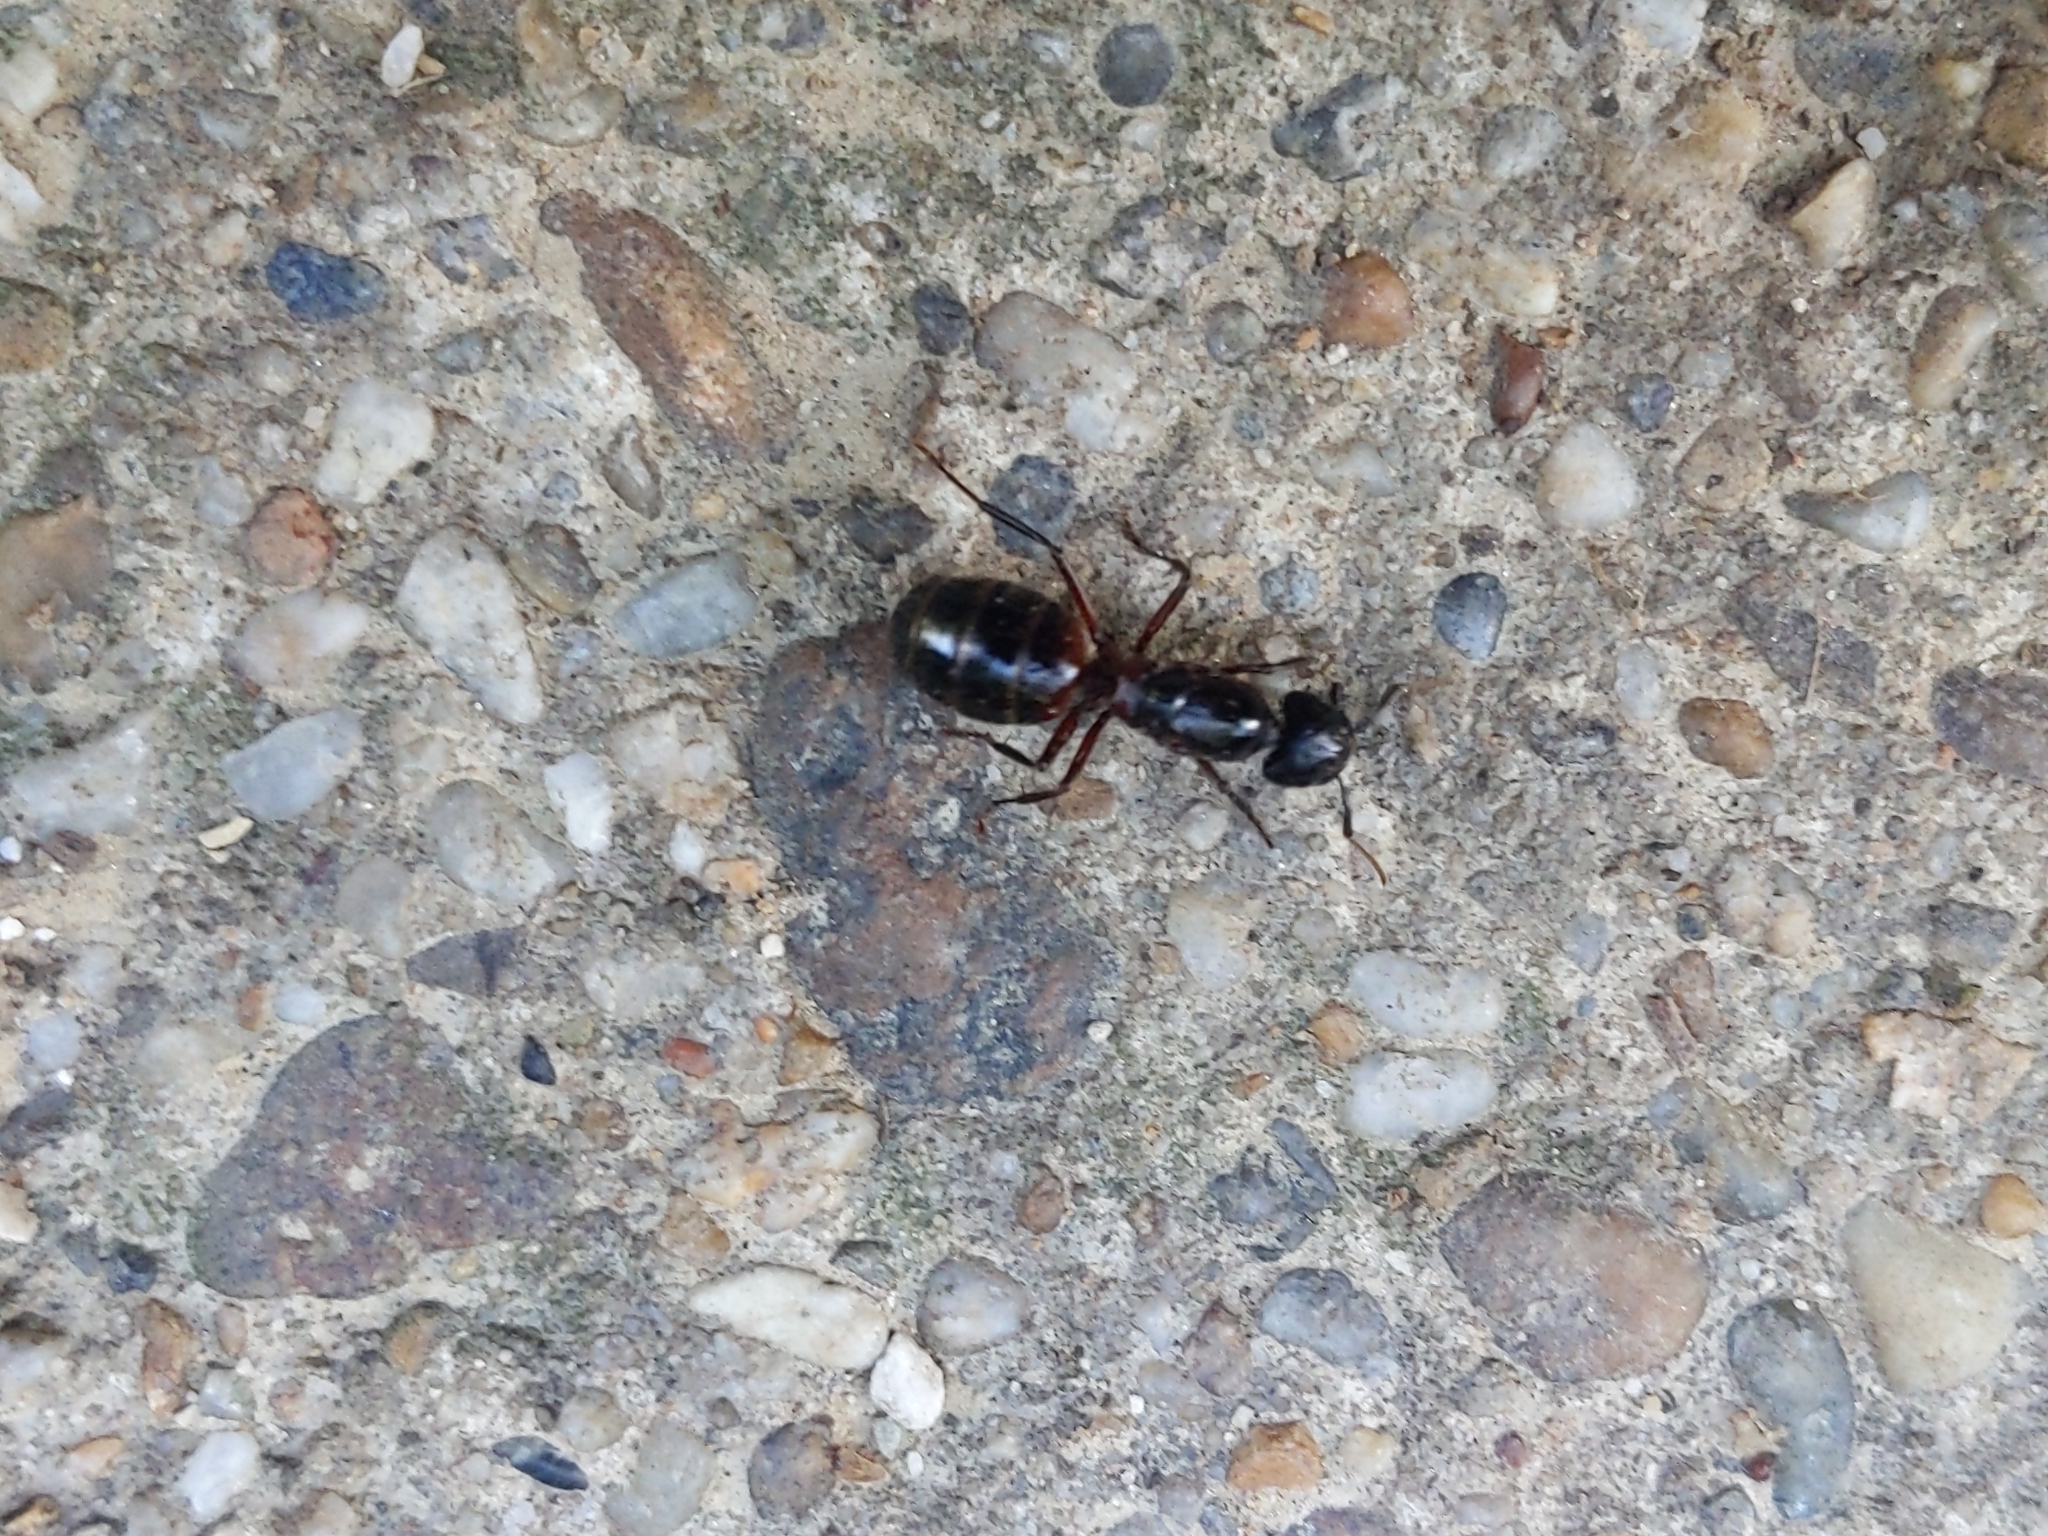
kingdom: Animalia
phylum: Arthropoda
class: Insecta
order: Hymenoptera
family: Formicidae
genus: Camponotus
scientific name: Camponotus ligniperdus
